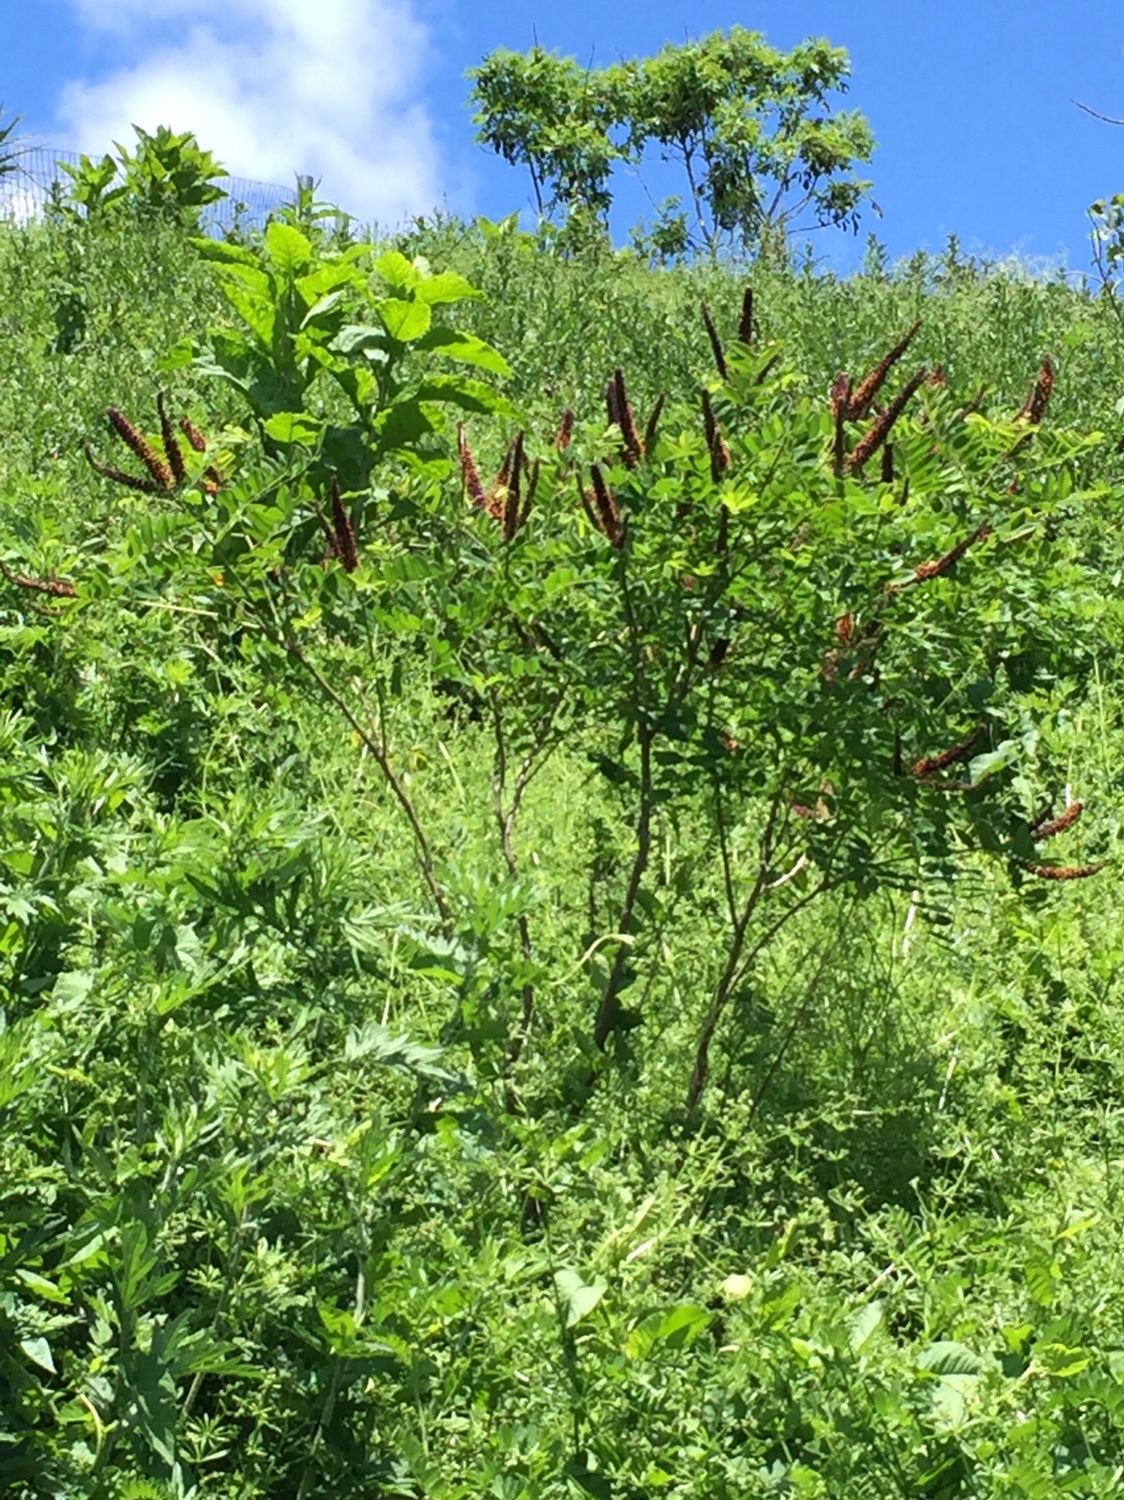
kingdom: Plantae
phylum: Tracheophyta
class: Magnoliopsida
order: Fabales
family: Fabaceae
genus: Amorpha
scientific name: Amorpha fruticosa
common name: False indigo
